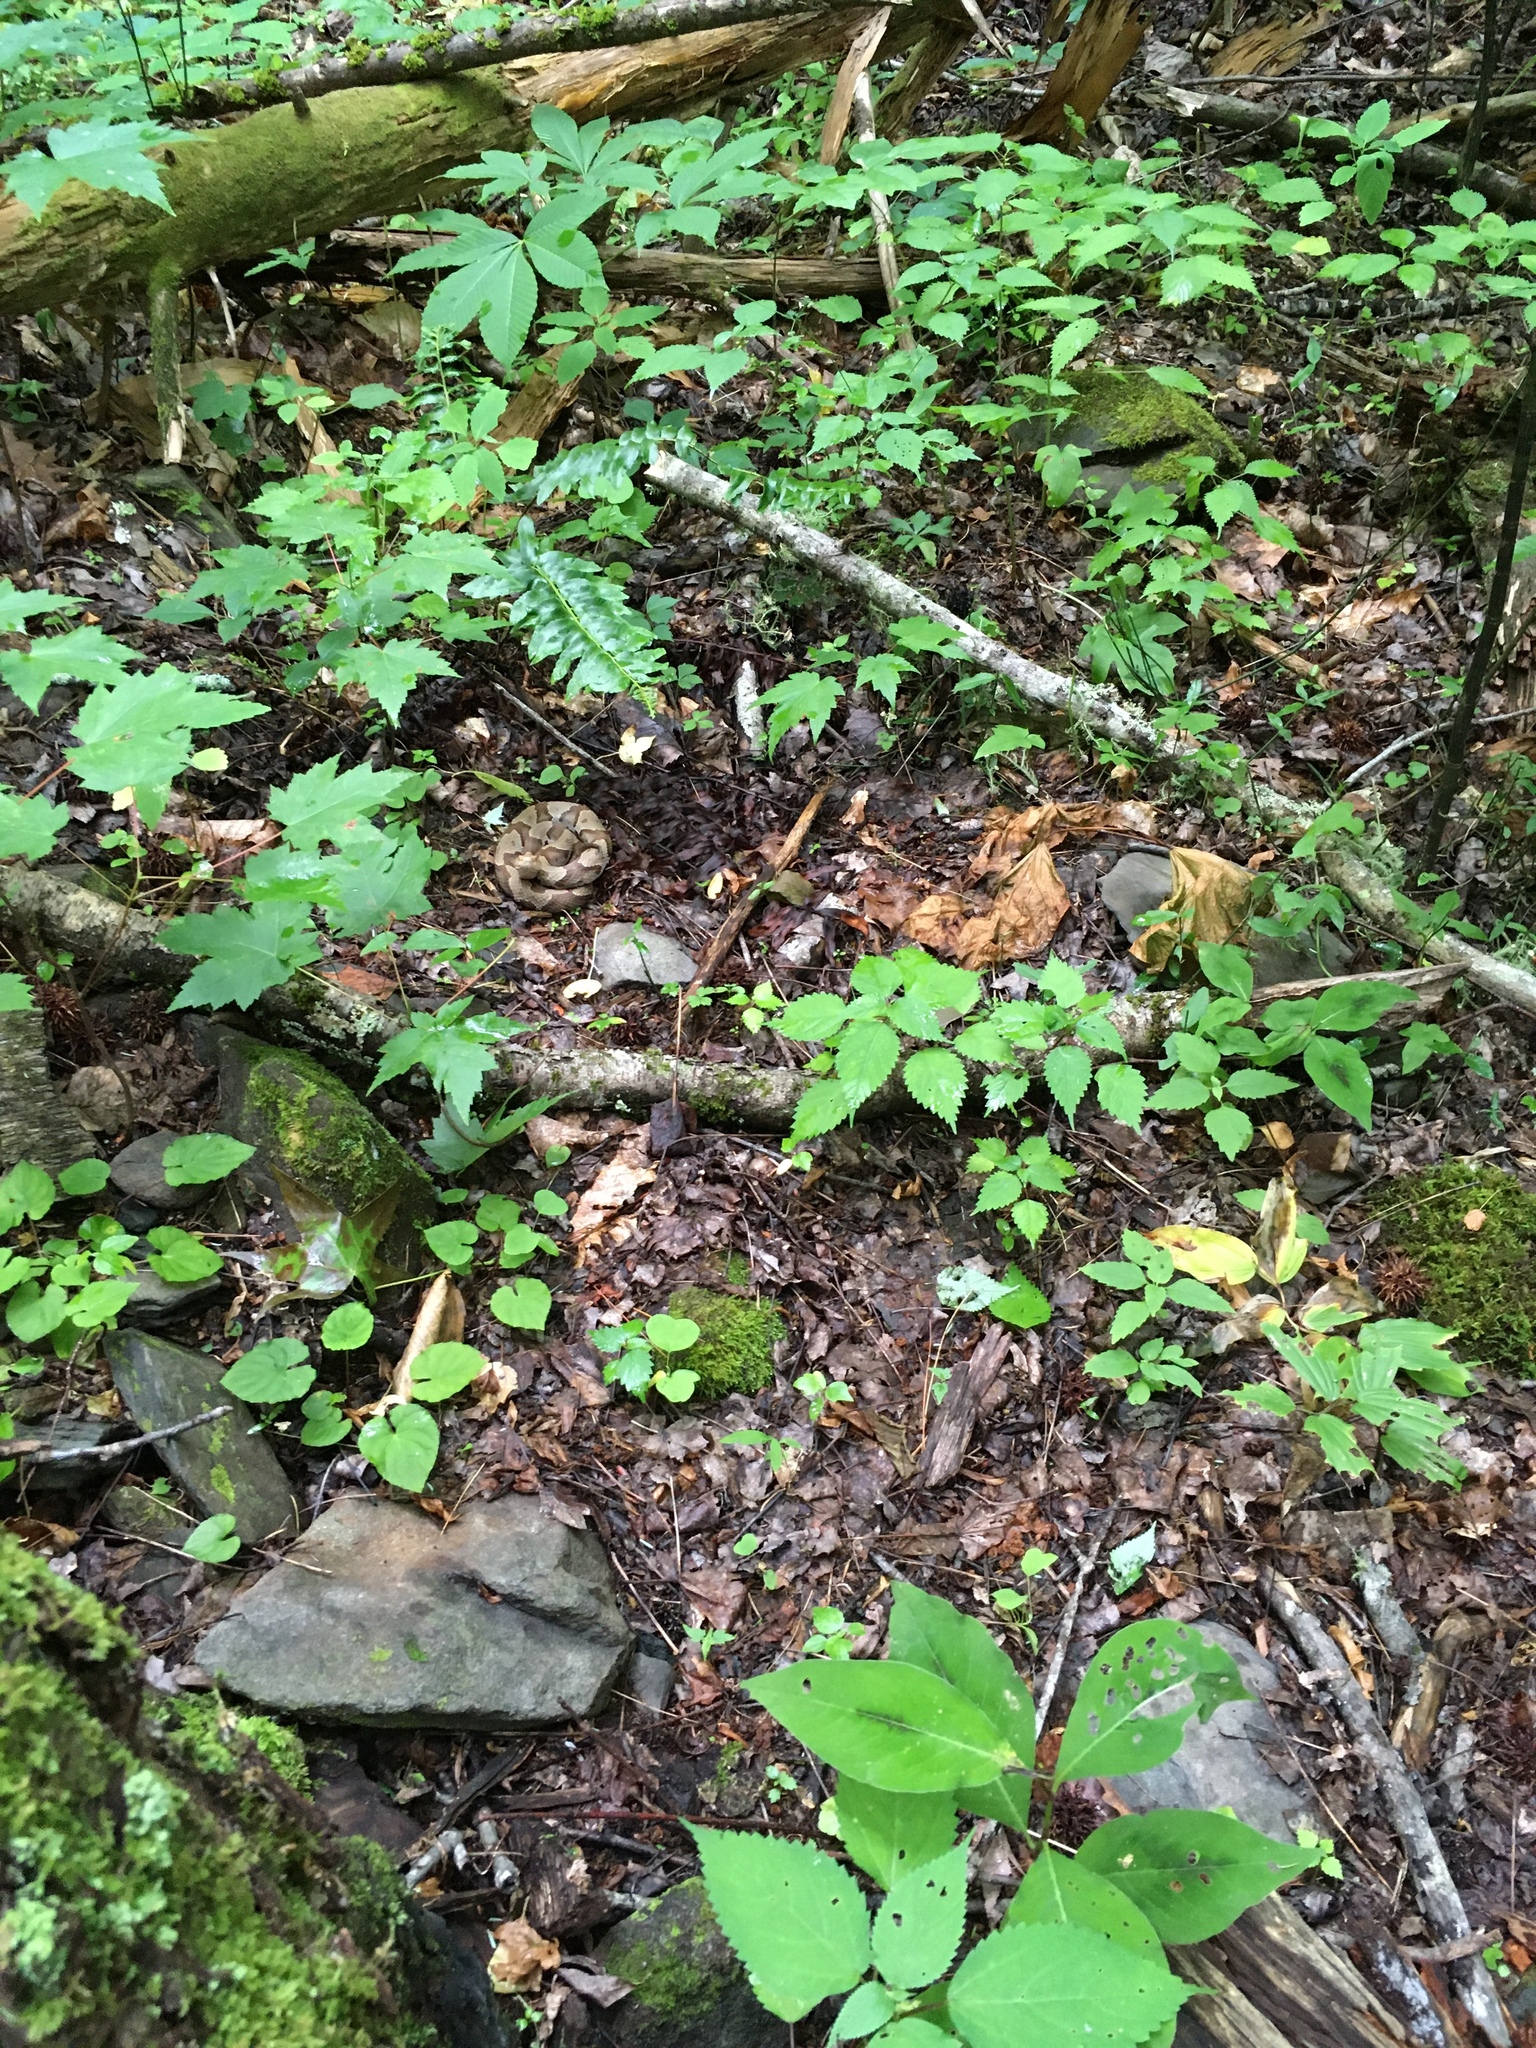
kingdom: Animalia
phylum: Chordata
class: Squamata
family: Viperidae
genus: Agkistrodon
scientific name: Agkistrodon contortrix
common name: Northern copperhead
